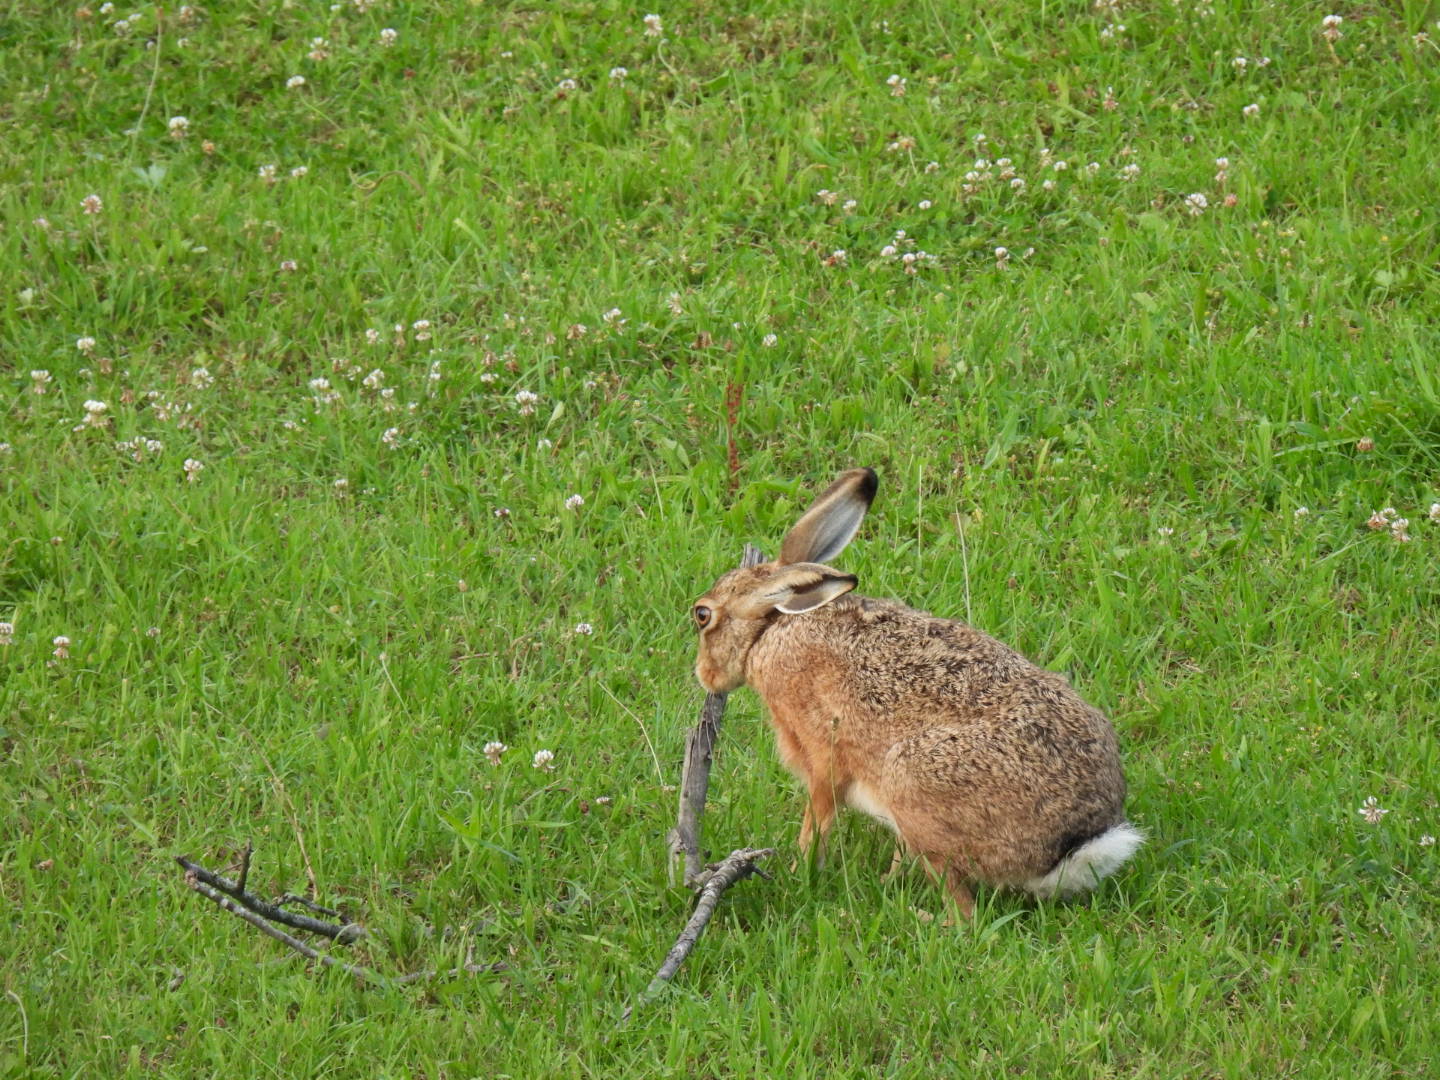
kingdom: Animalia
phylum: Chordata
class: Mammalia
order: Lagomorpha
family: Leporidae
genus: Lepus
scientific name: Lepus europaeus
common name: European hare
